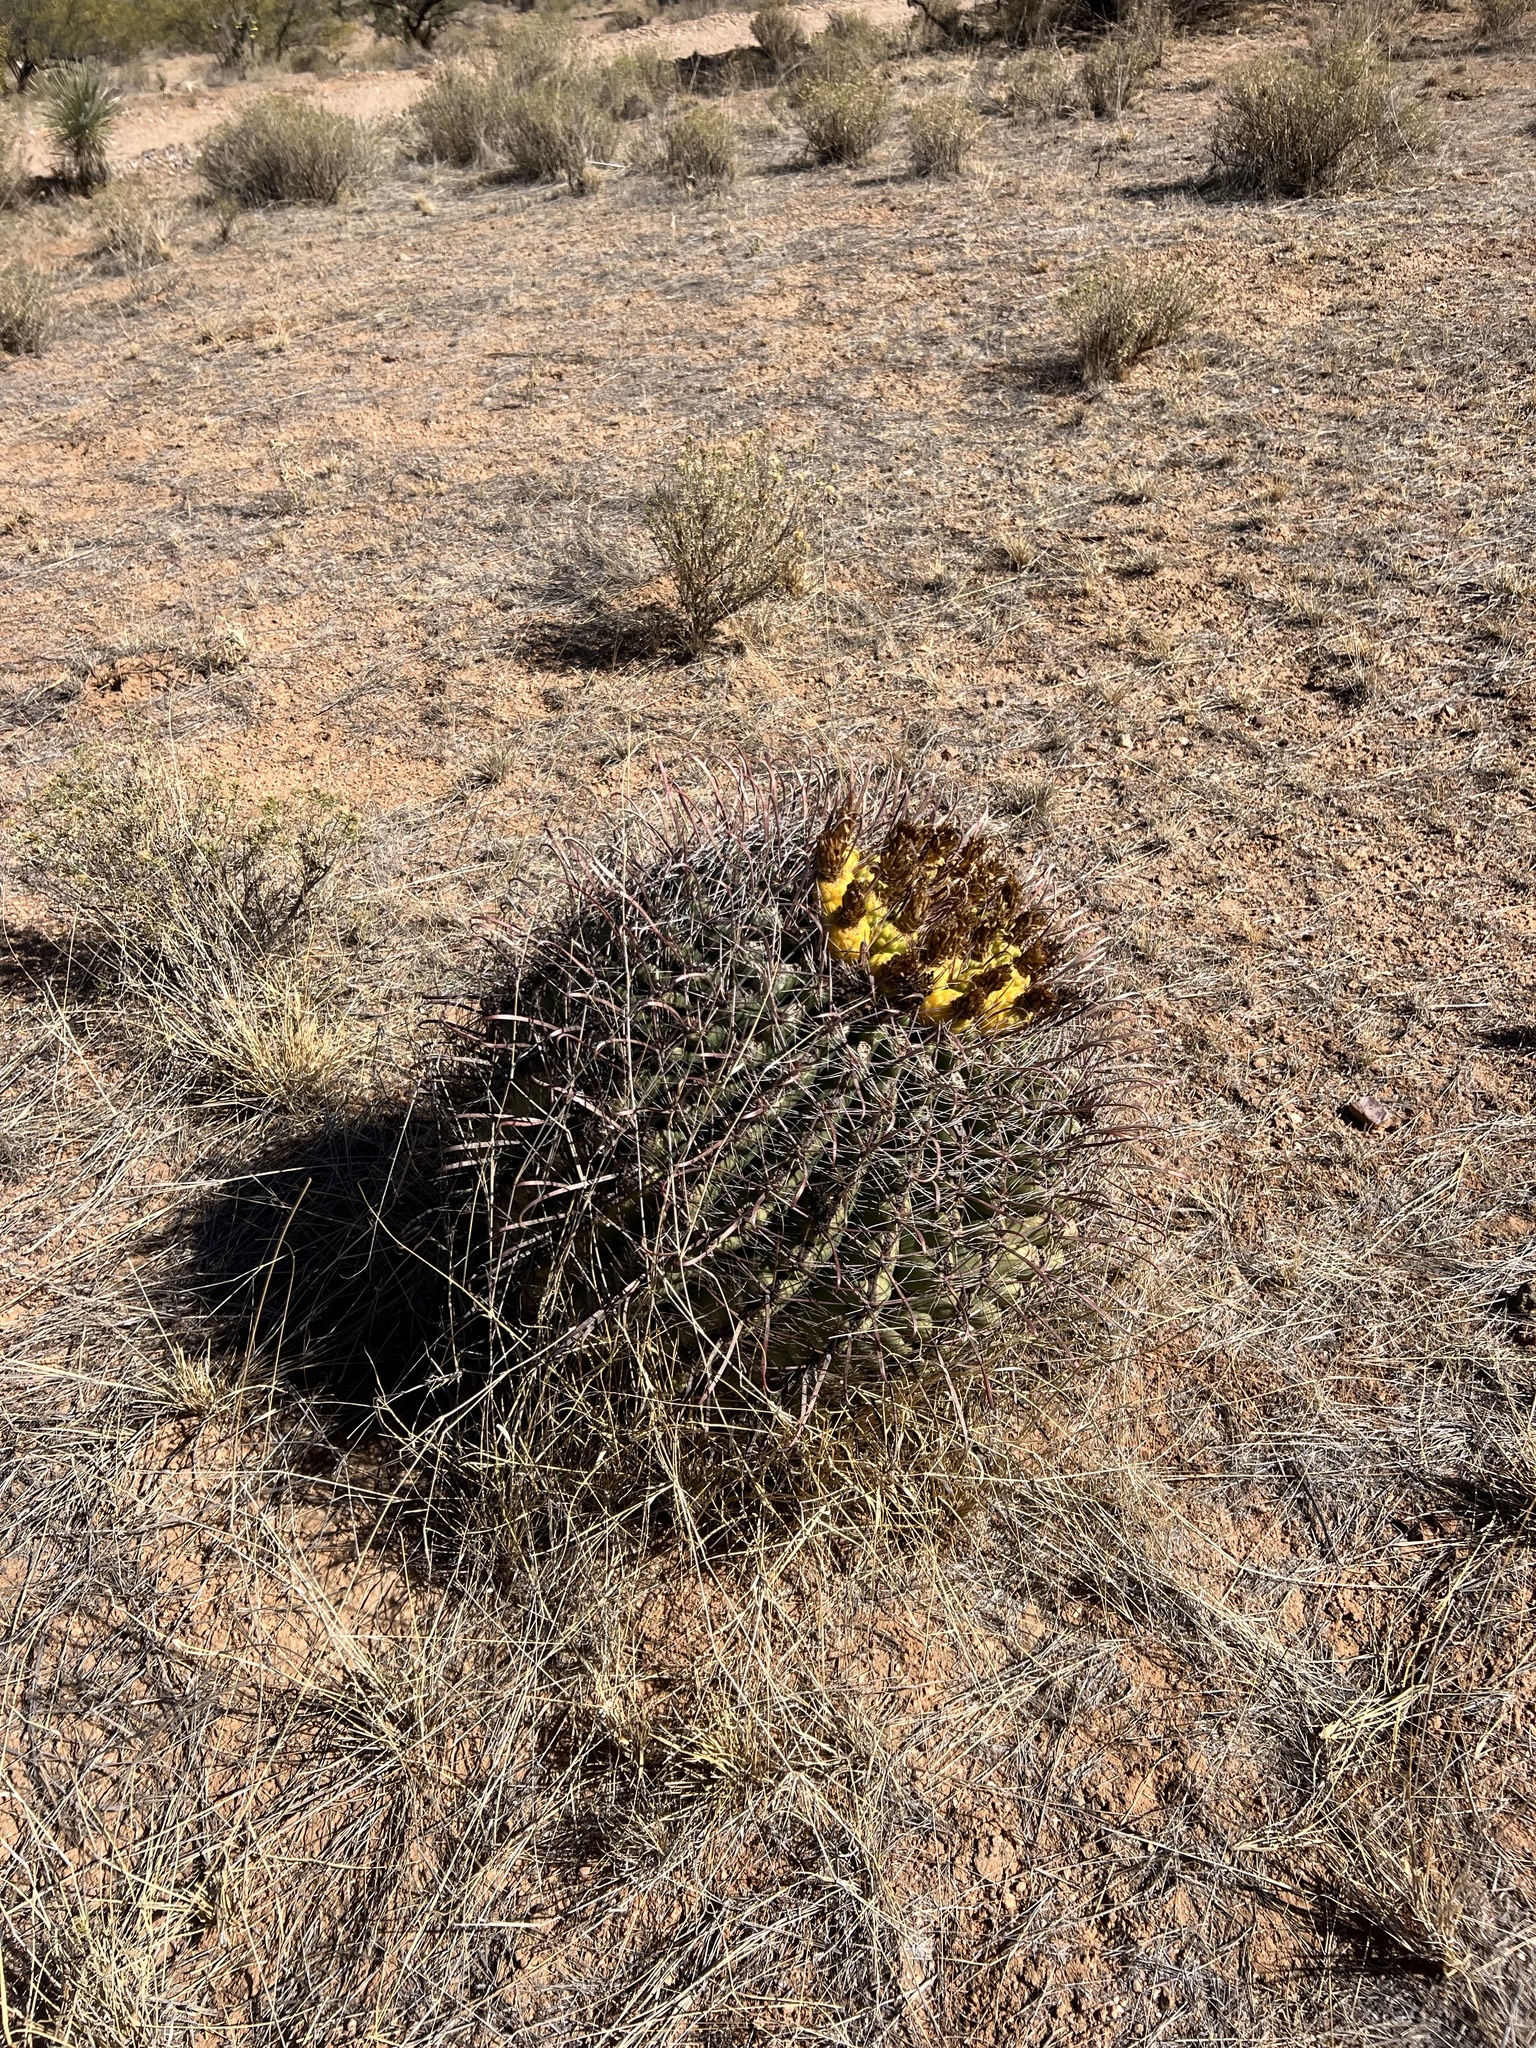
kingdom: Plantae
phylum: Tracheophyta
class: Magnoliopsida
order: Caryophyllales
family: Cactaceae
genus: Ferocactus
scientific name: Ferocactus wislizeni
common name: Candy barrel cactus
